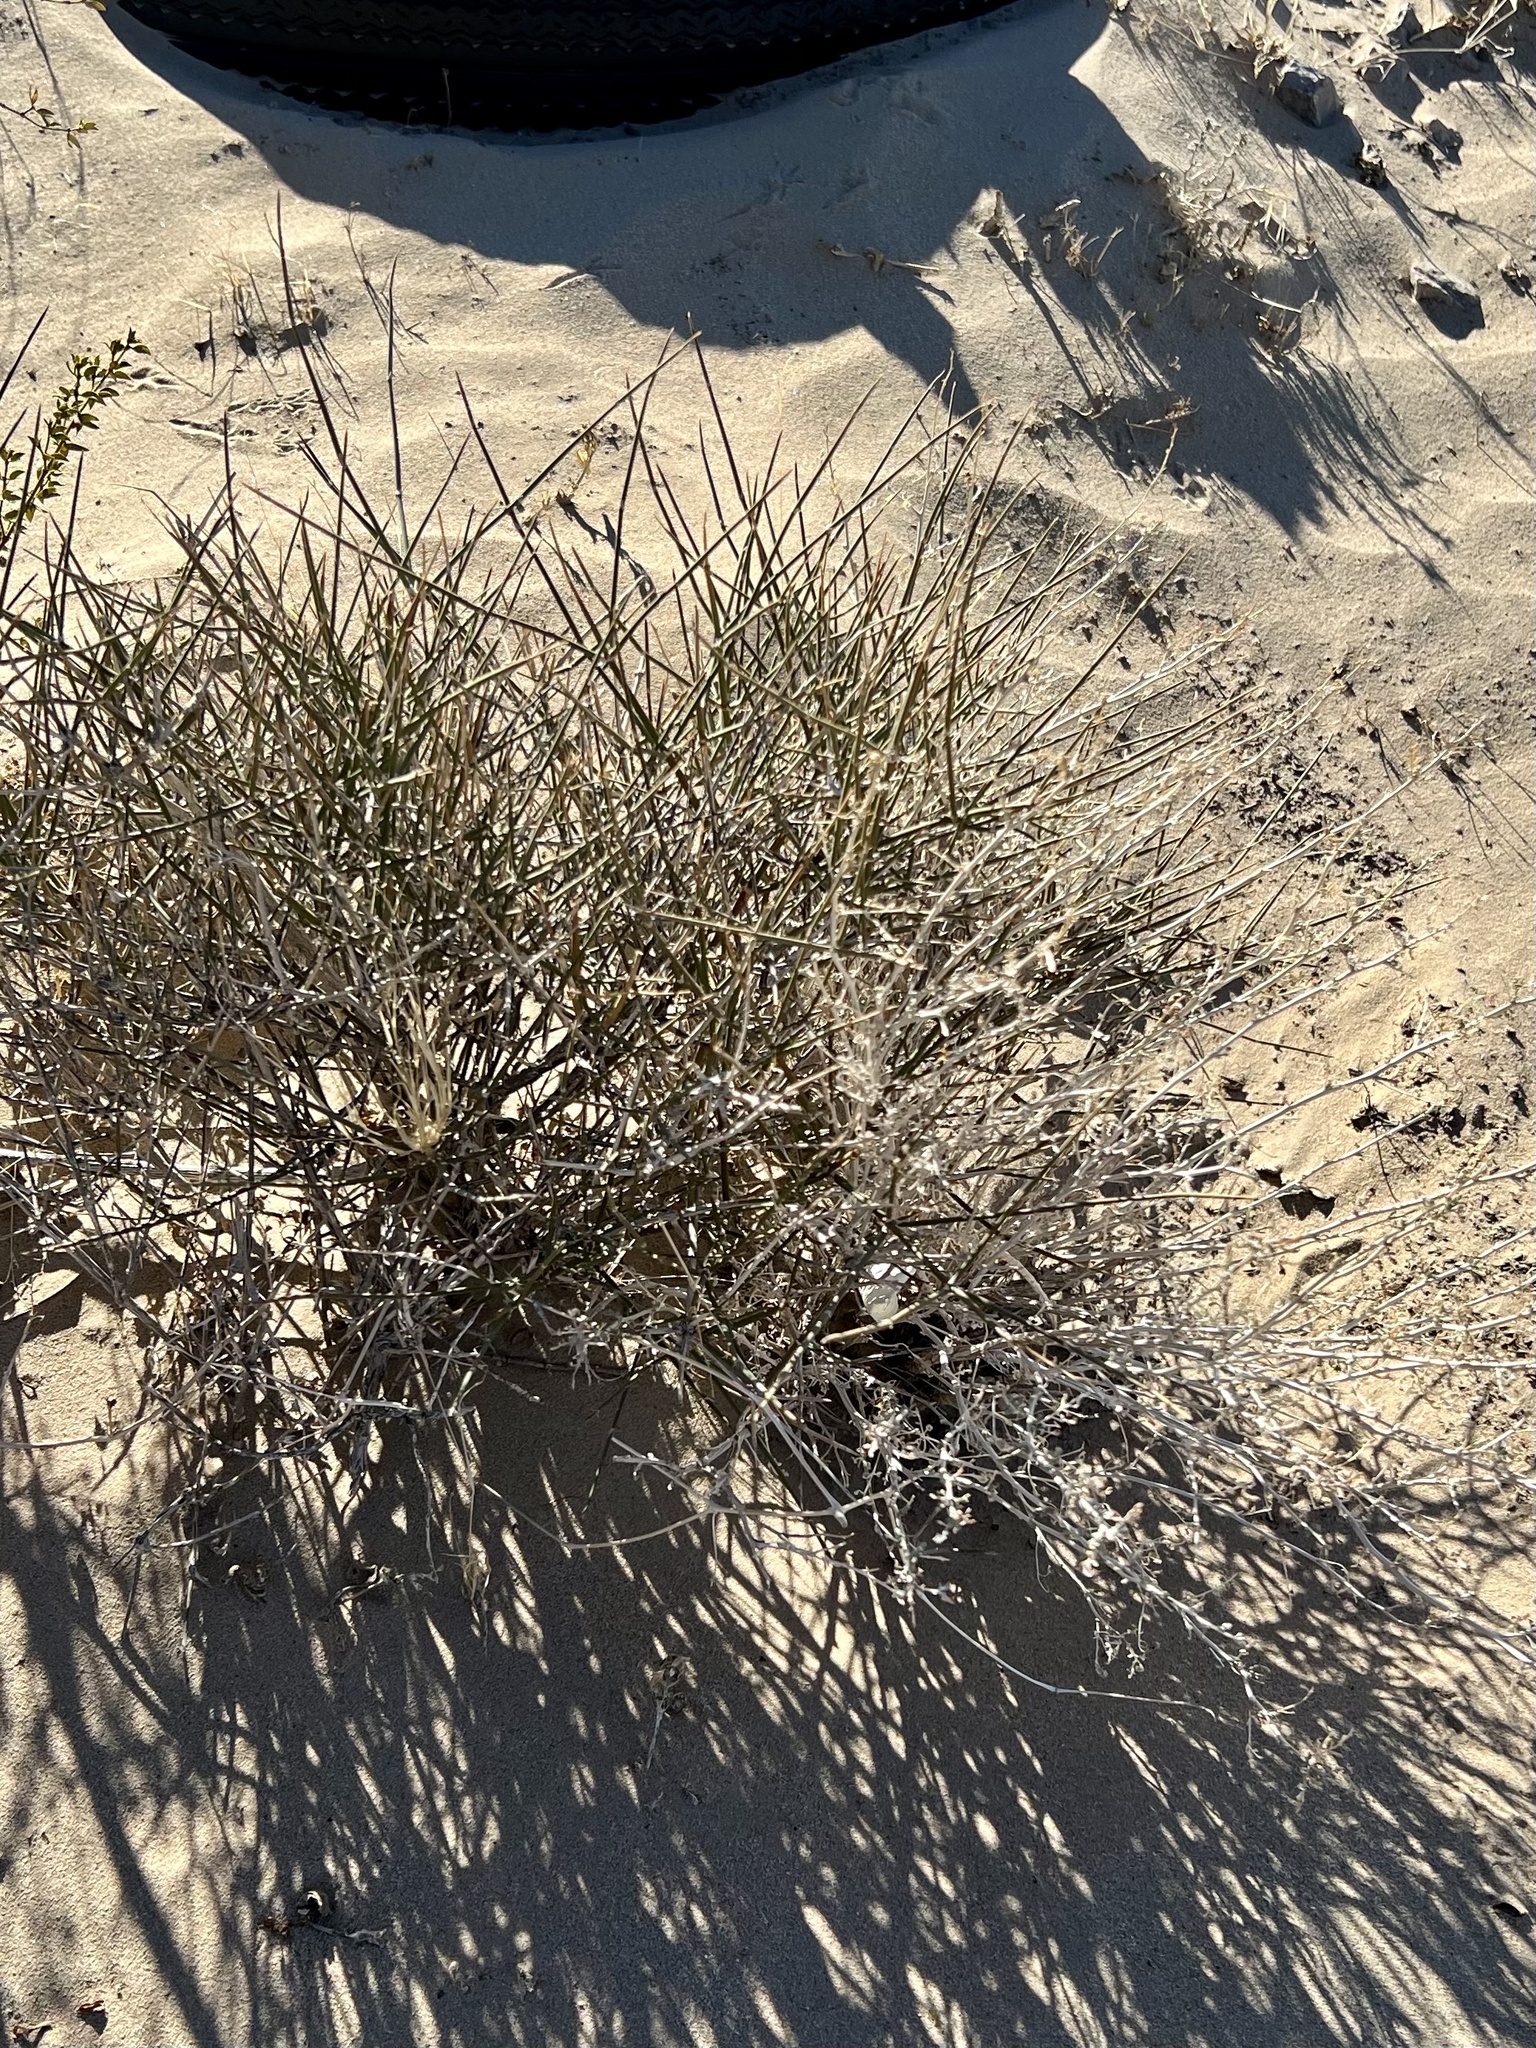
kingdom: Plantae
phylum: Tracheophyta
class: Gnetopsida
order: Ephedrales
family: Ephedraceae
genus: Ephedra
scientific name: Ephedra nevadensis
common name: Gray ephedra
